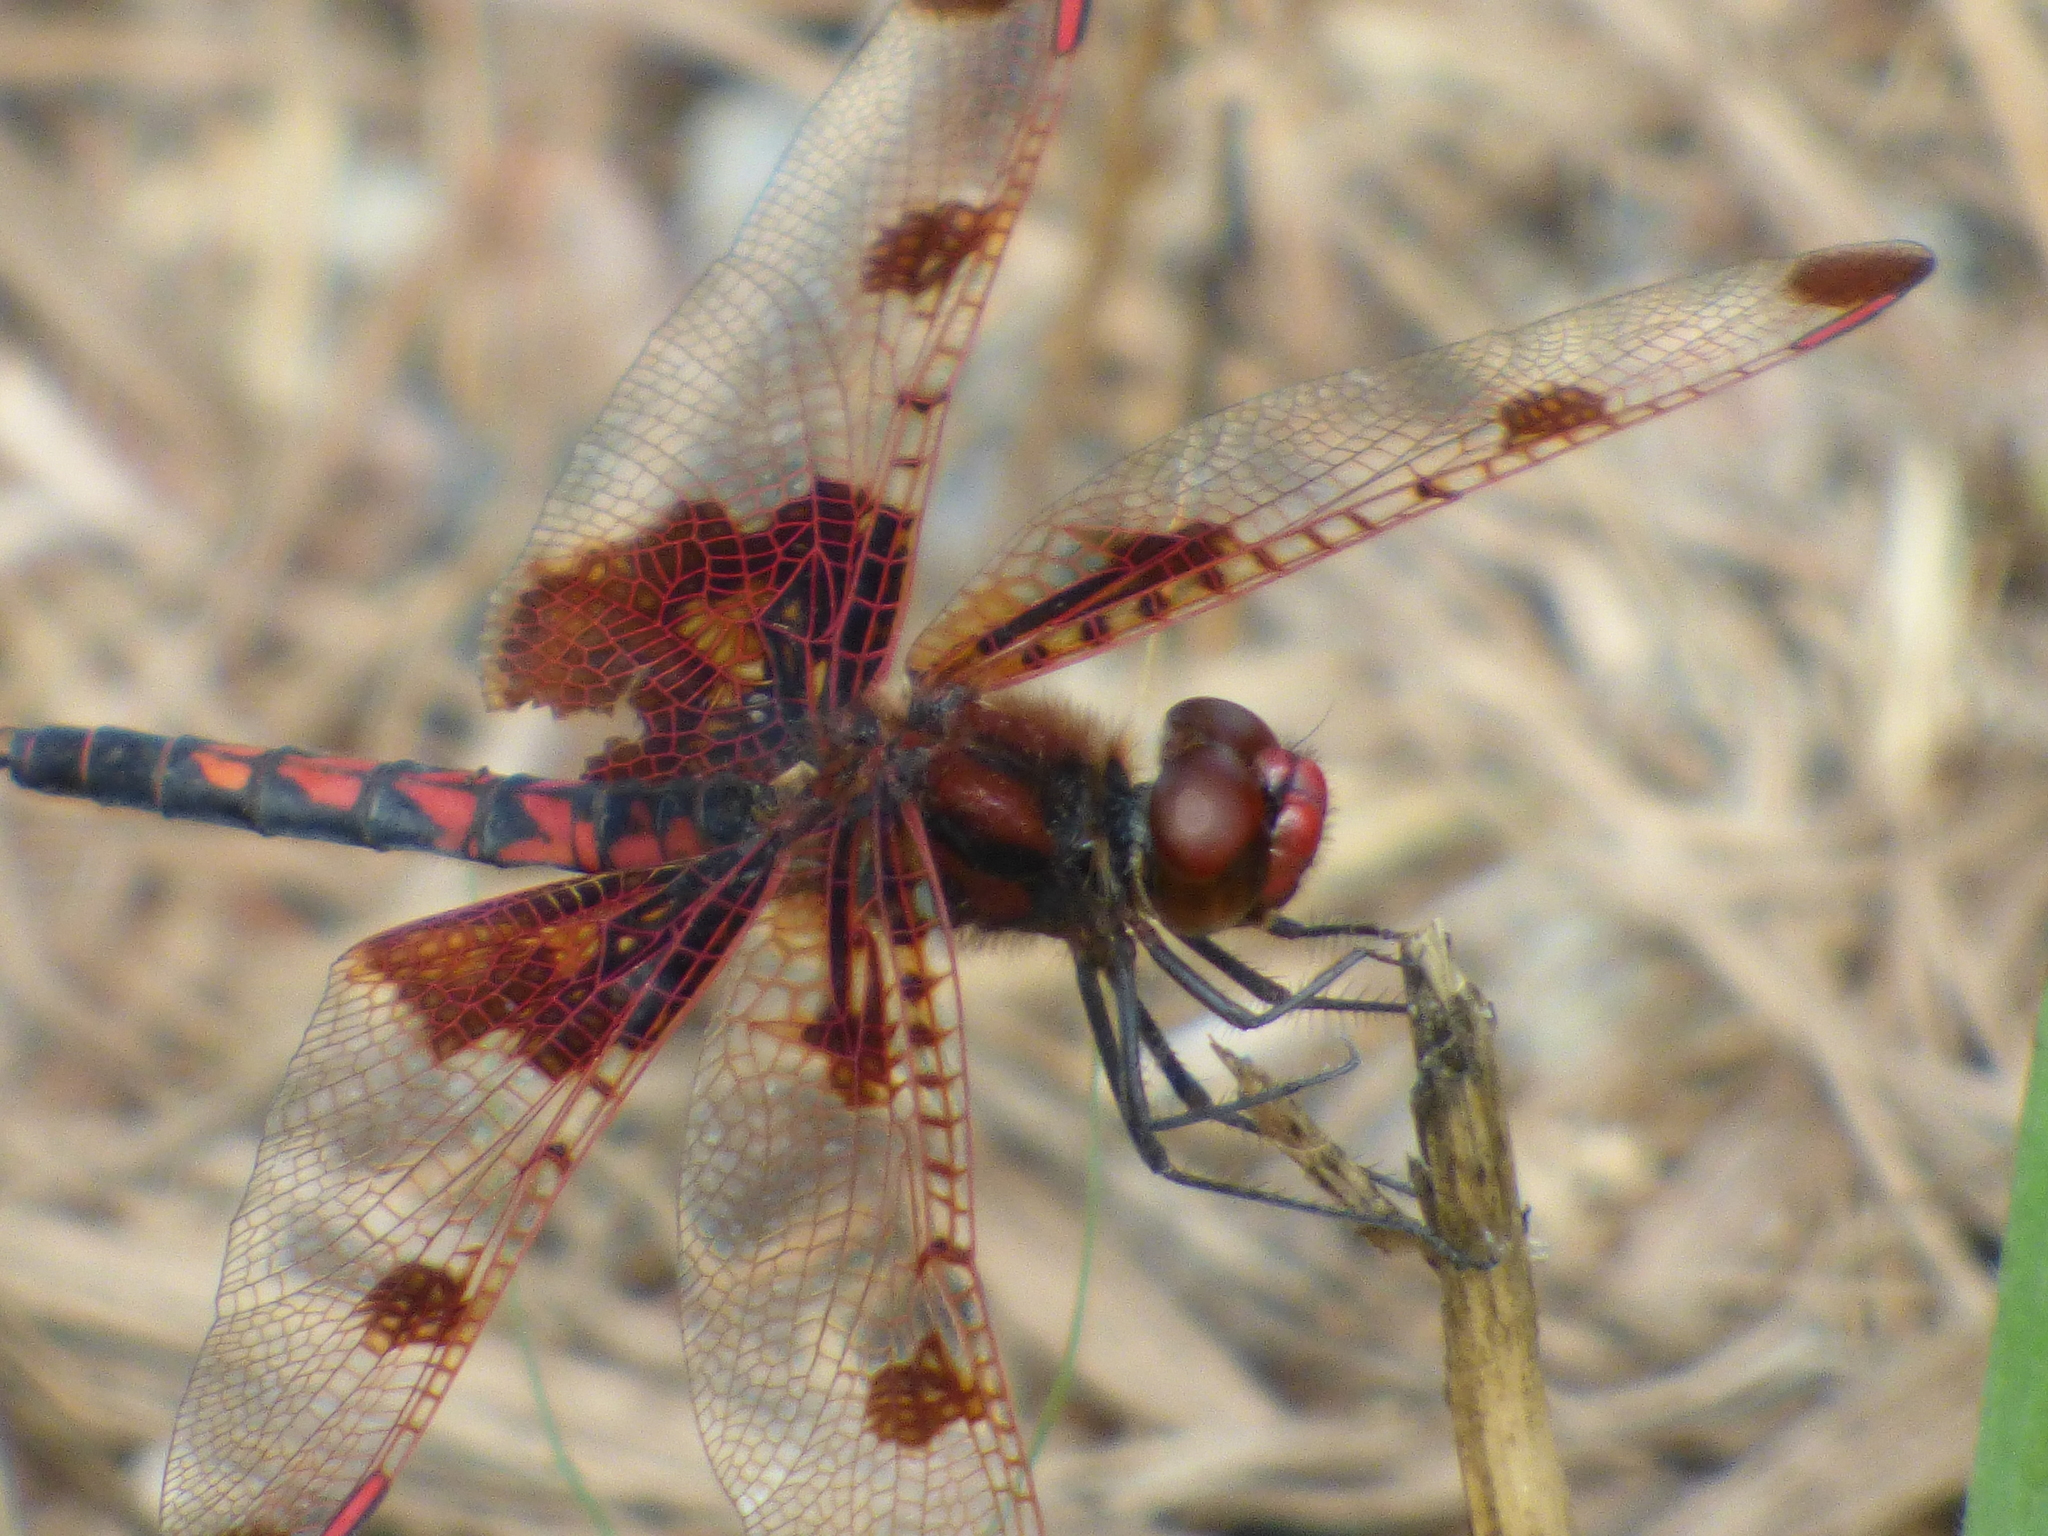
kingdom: Animalia
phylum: Arthropoda
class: Insecta
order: Odonata
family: Libellulidae
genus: Celithemis
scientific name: Celithemis elisa
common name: Calico pennant
